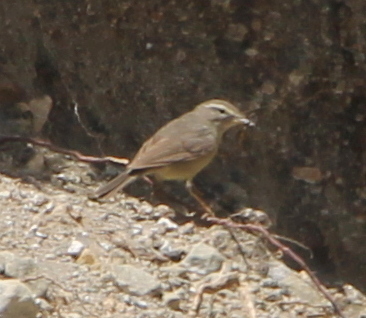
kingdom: Animalia
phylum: Chordata
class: Aves
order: Passeriformes
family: Phylloscopidae
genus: Phylloscopus
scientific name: Phylloscopus griseolus
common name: Sulphur-bellied warbler
